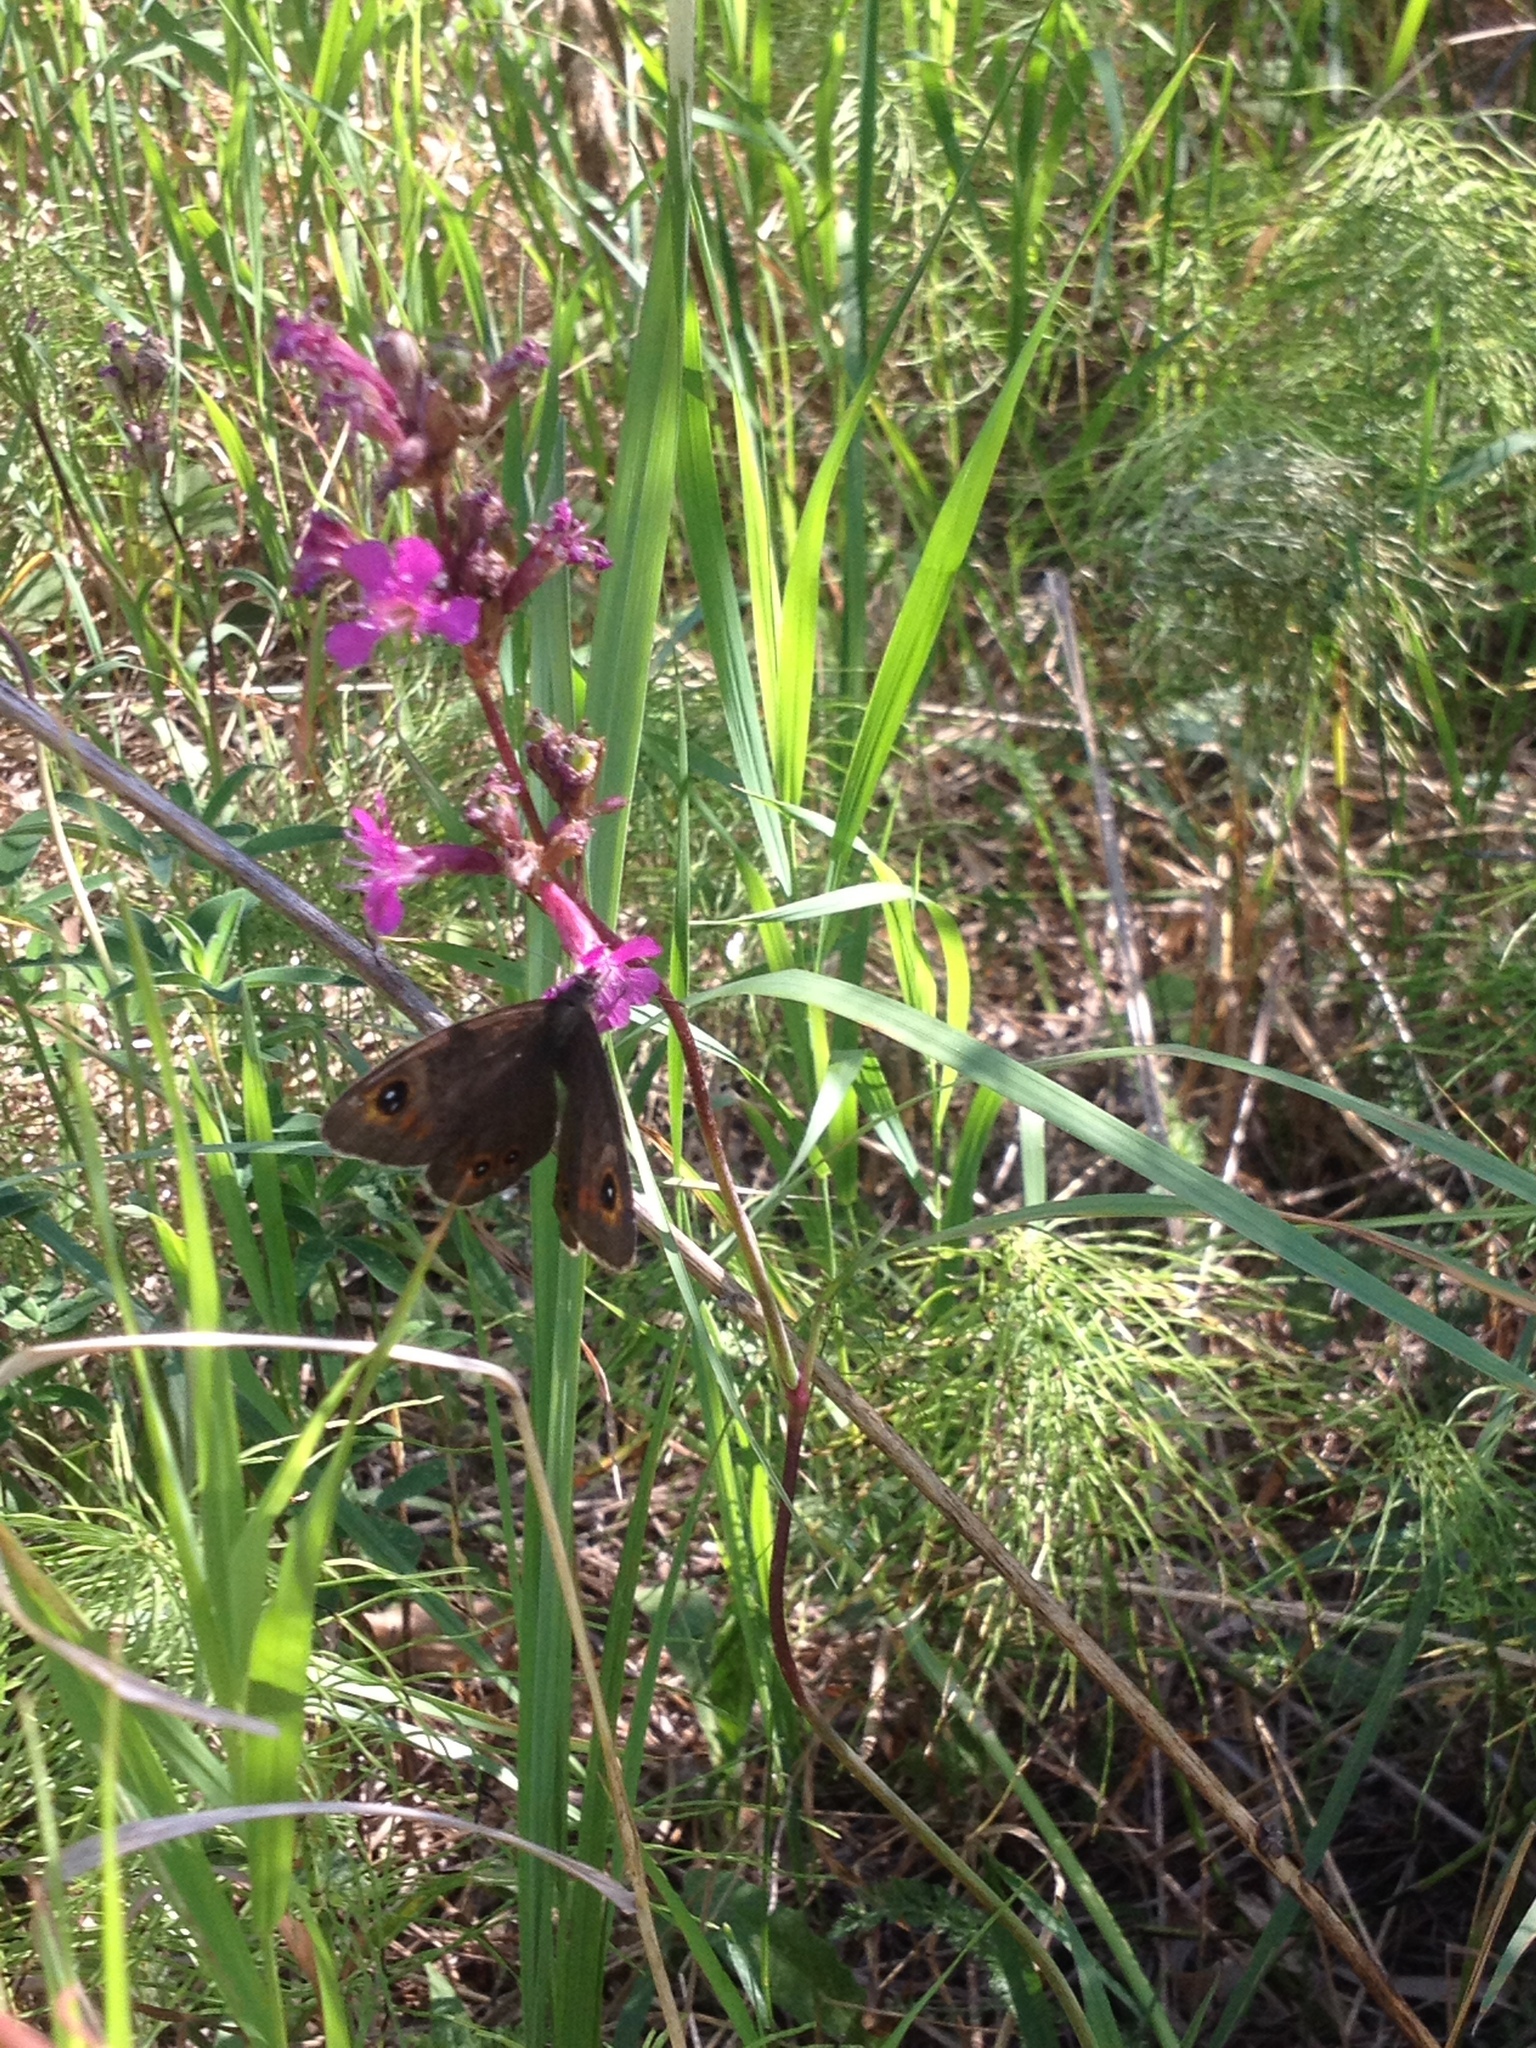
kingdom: Animalia
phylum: Arthropoda
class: Insecta
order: Lepidoptera
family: Nymphalidae
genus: Pararge
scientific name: Pararge Lasiommata maera
